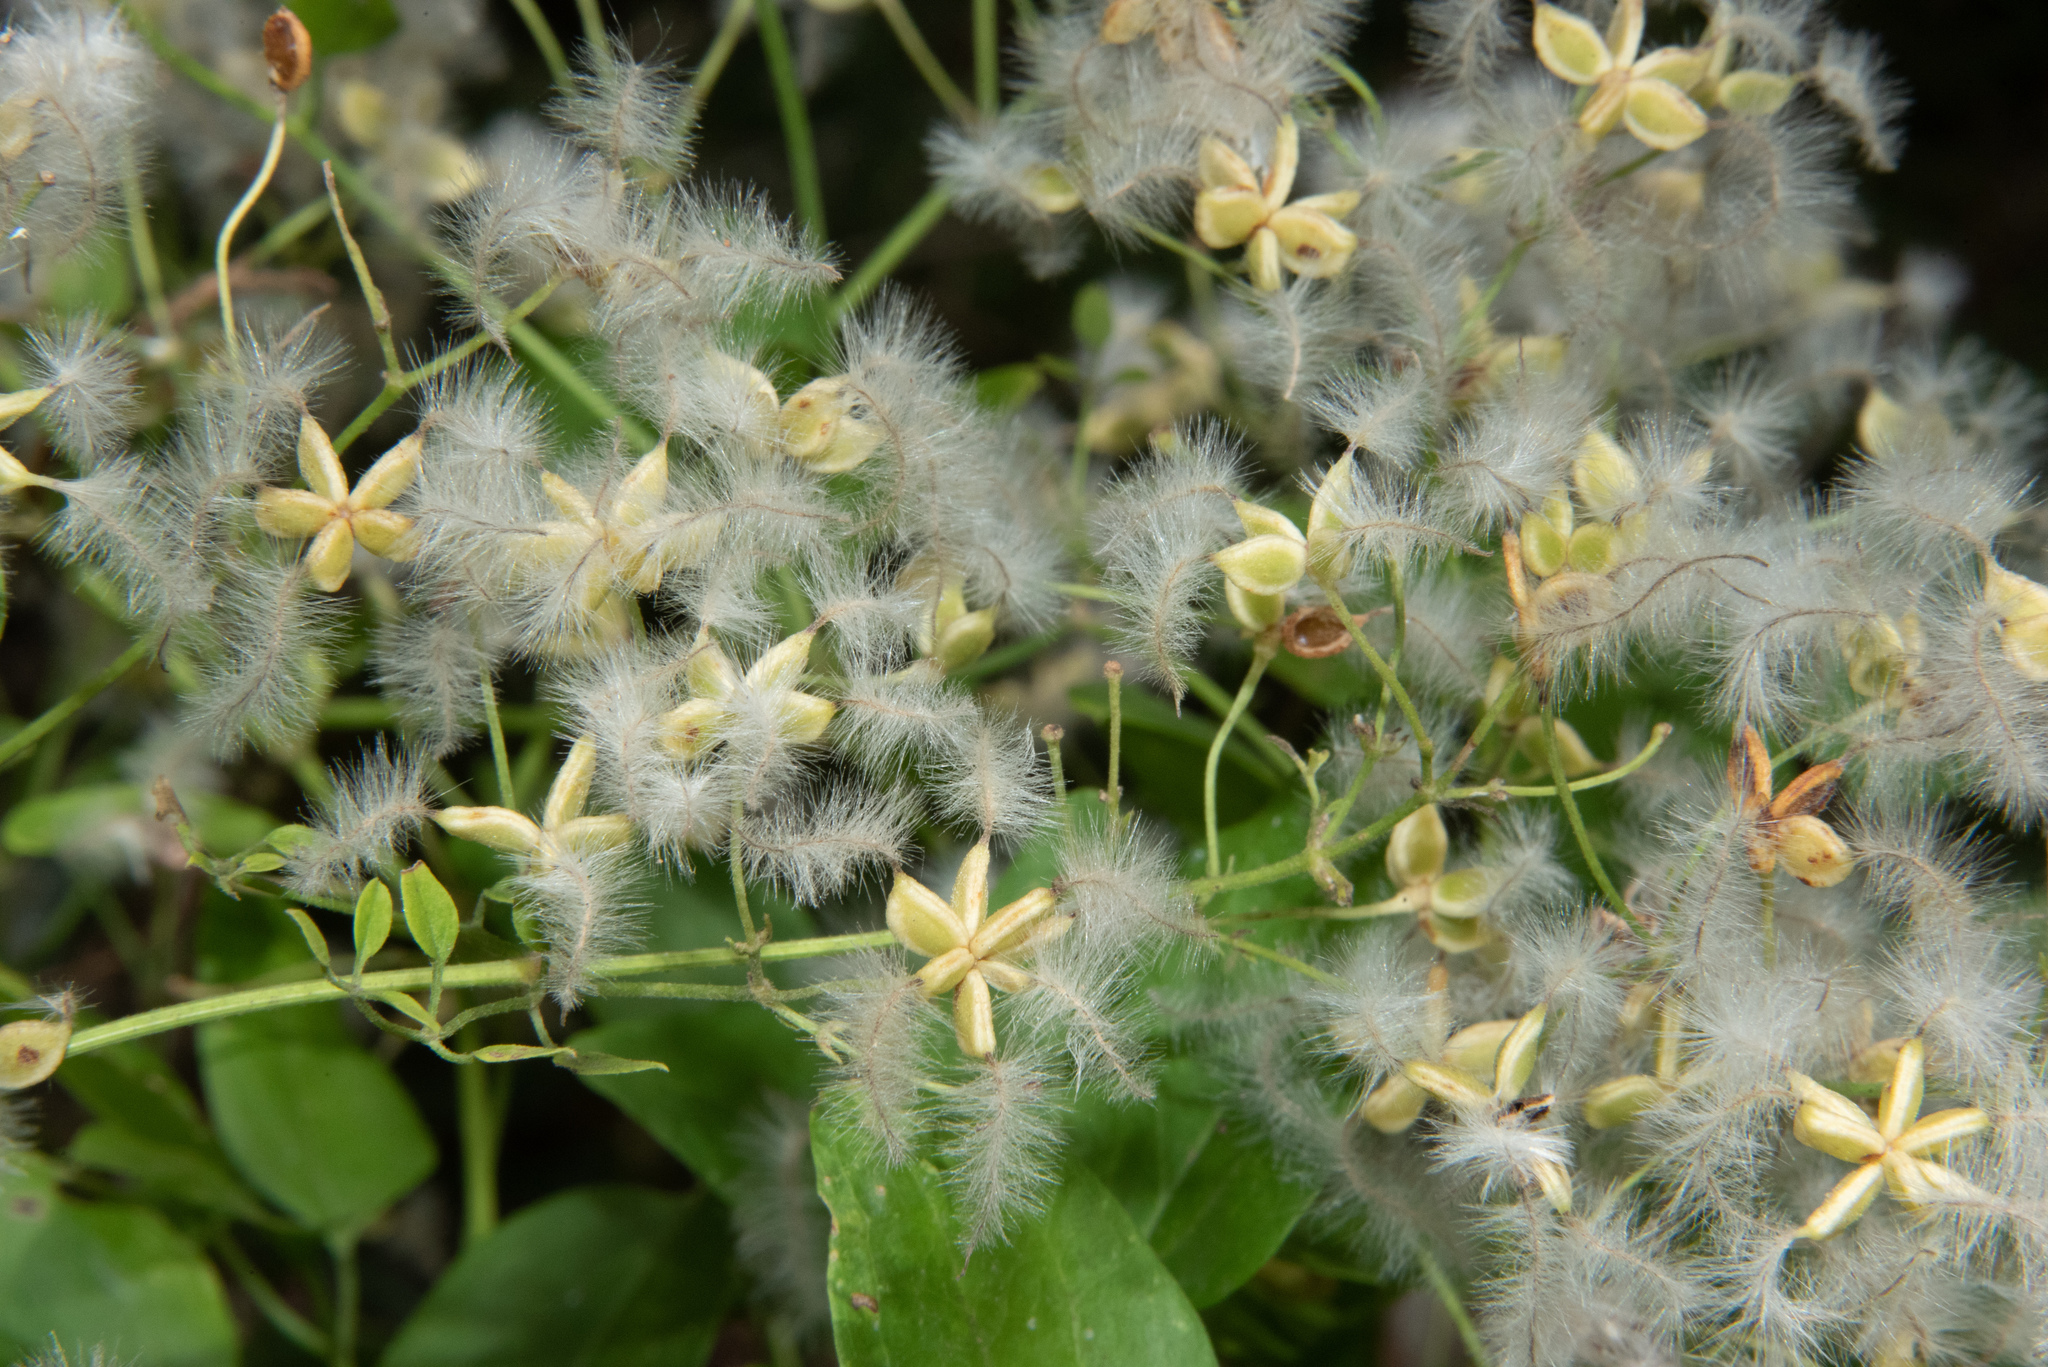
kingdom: Plantae
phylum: Tracheophyta
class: Magnoliopsida
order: Ranunculales
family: Ranunculaceae
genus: Clematis
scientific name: Clematis flammula
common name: Virgin's-bower
